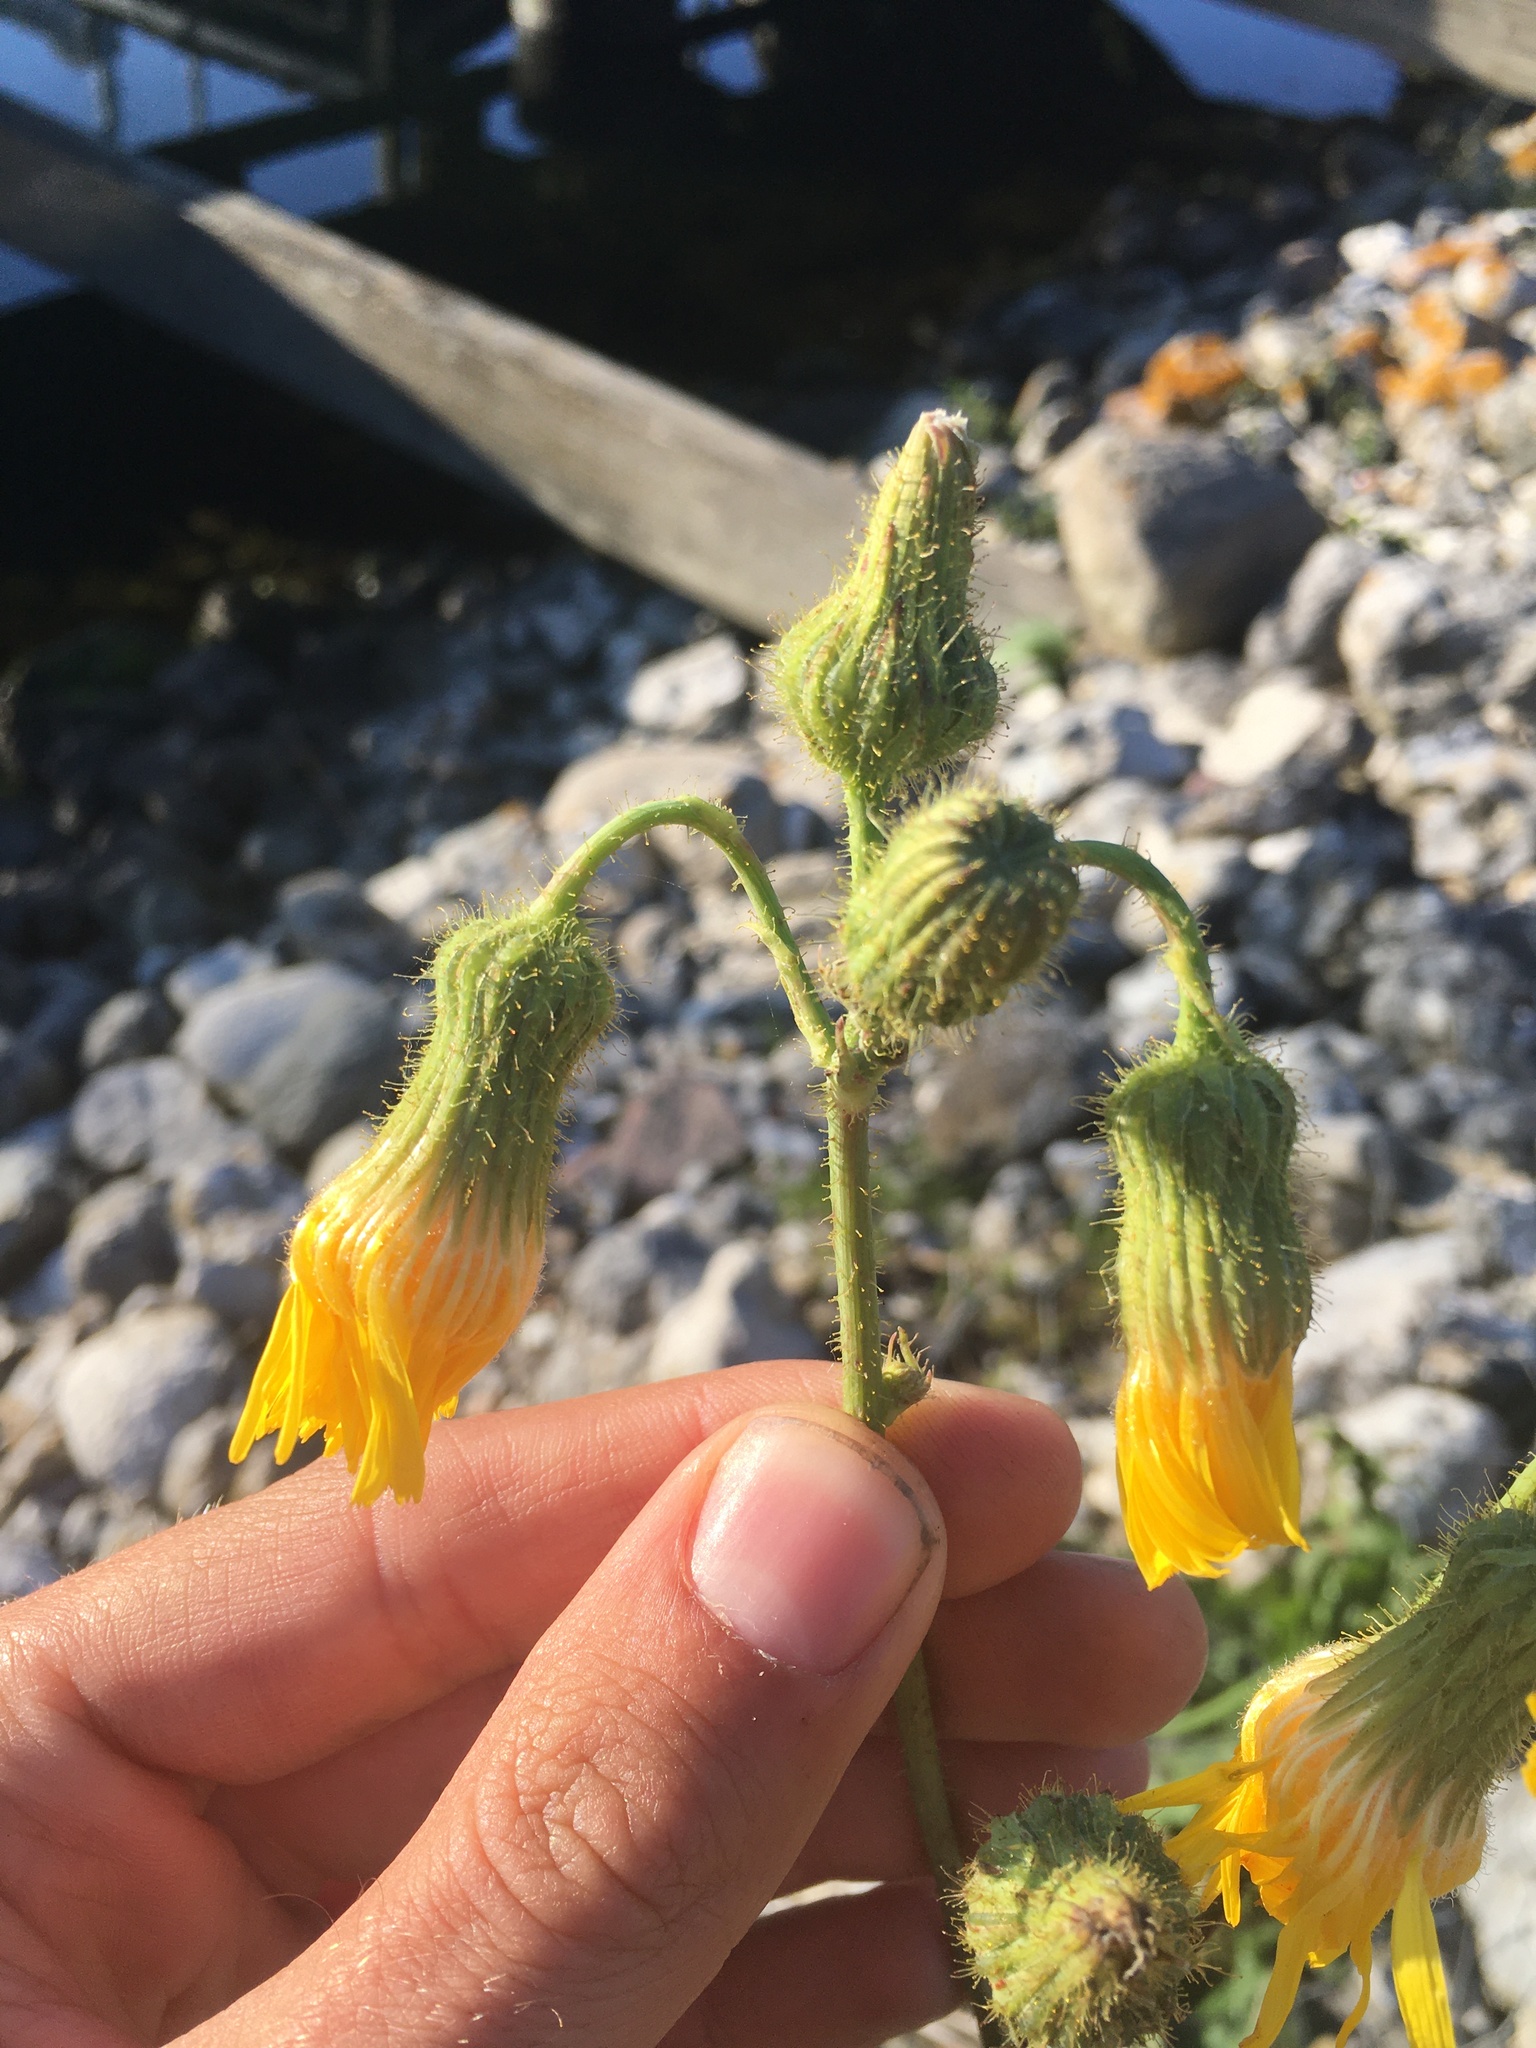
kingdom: Plantae
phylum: Tracheophyta
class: Magnoliopsida
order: Asterales
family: Asteraceae
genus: Sonchus
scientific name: Sonchus arvensis
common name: Perennial sow-thistle
